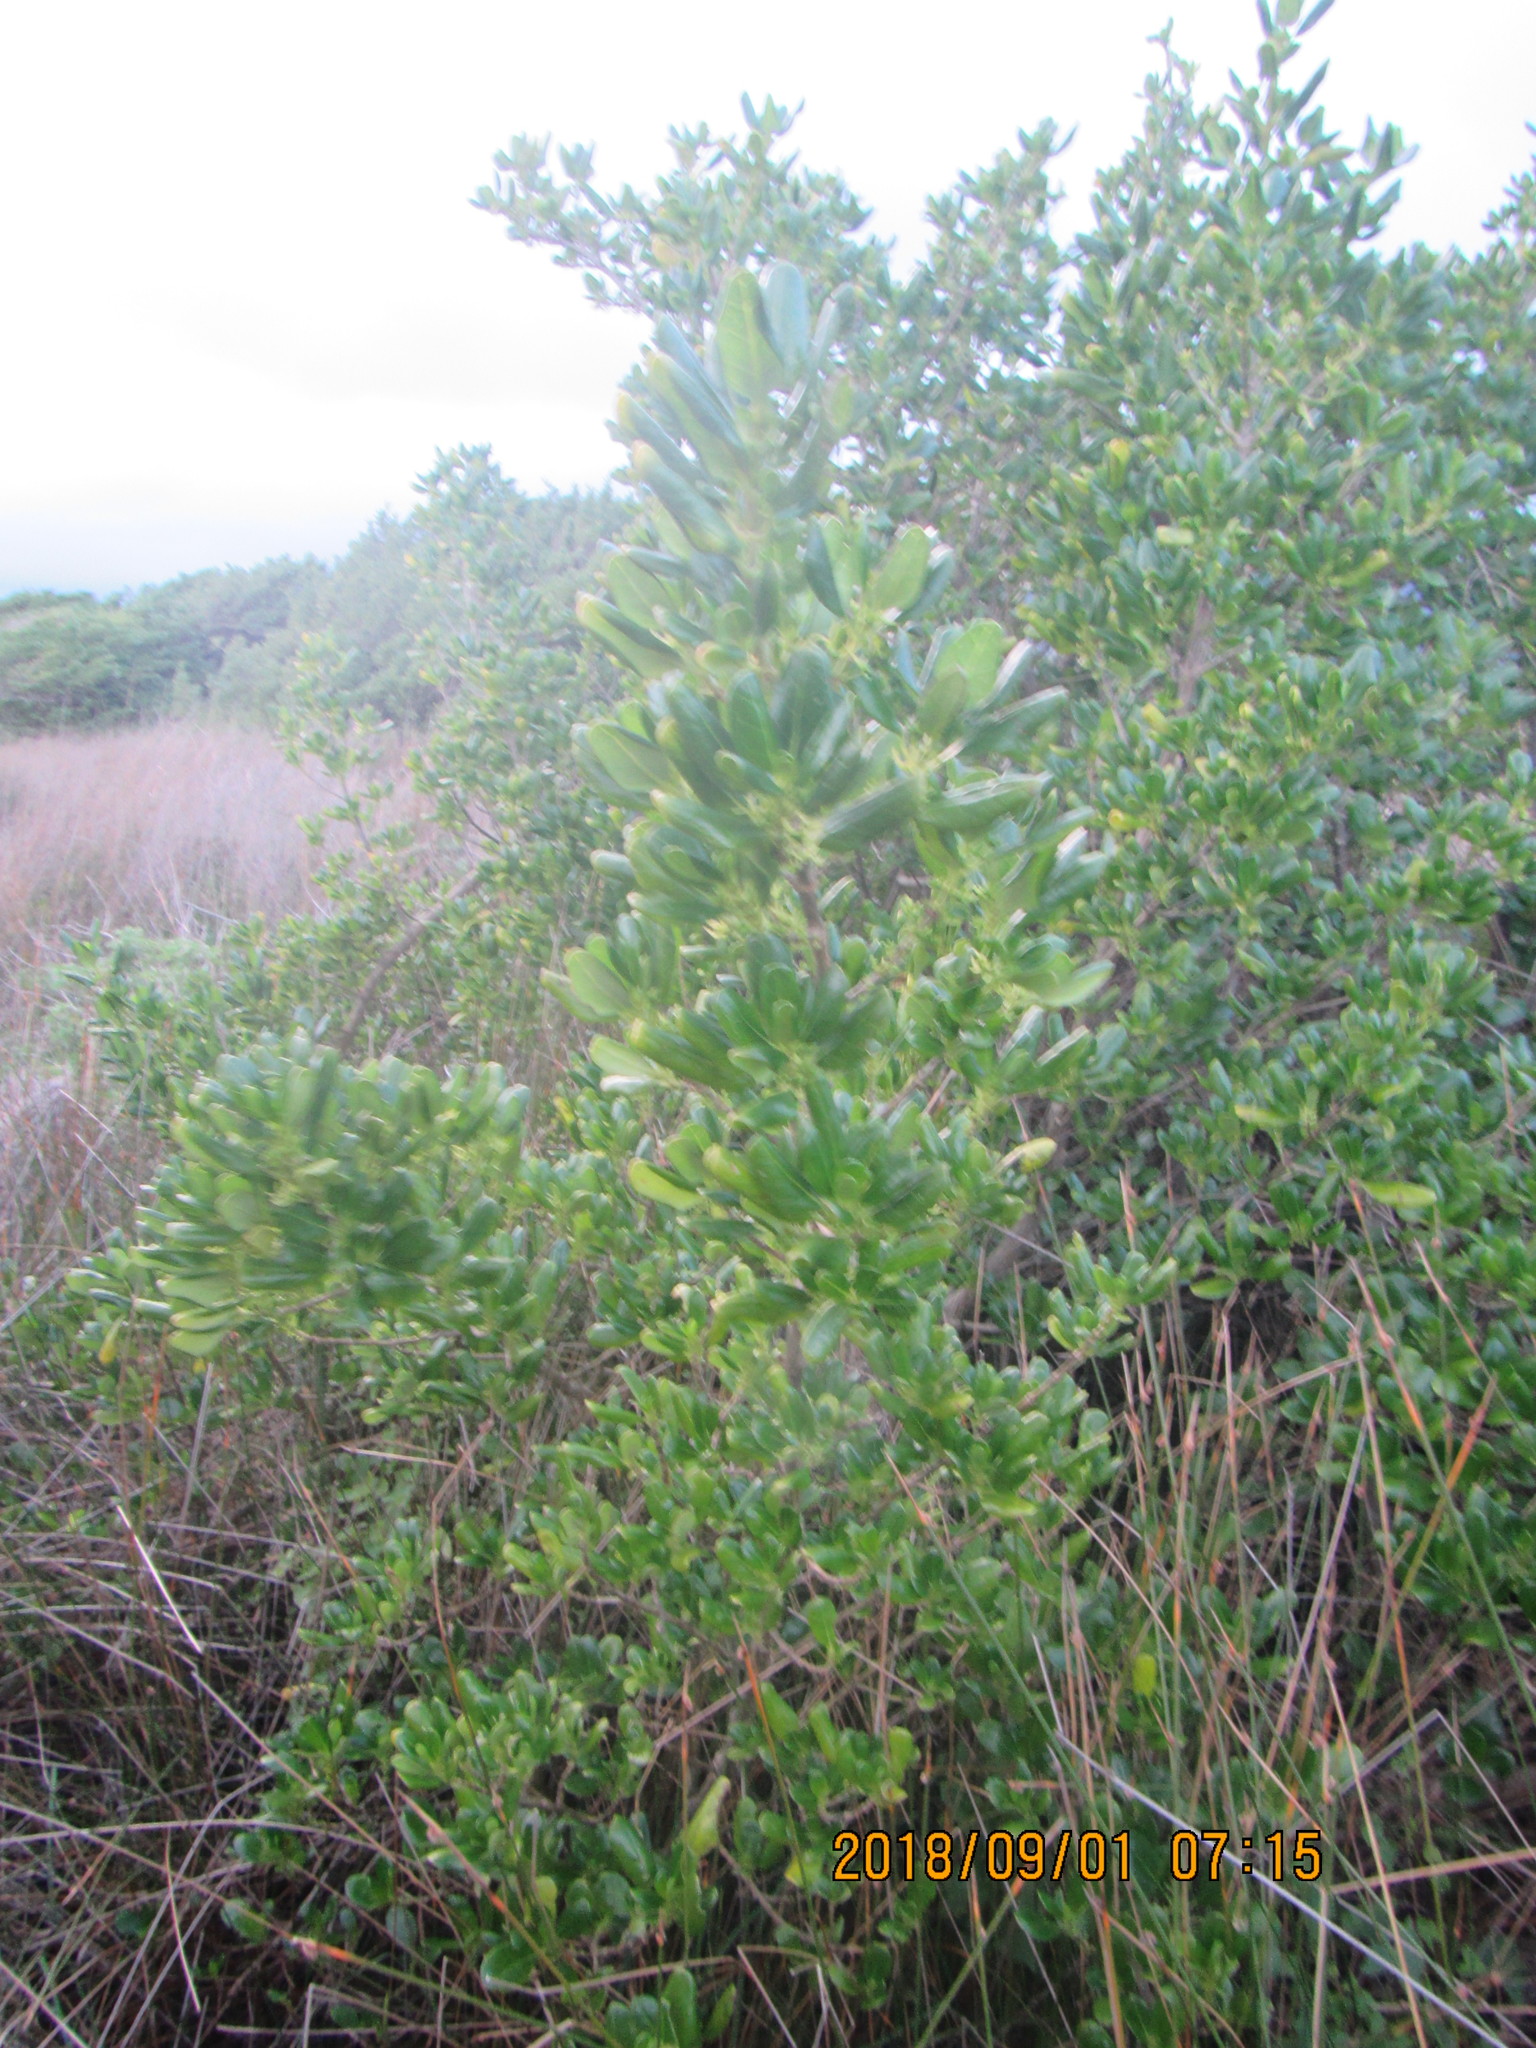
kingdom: Plantae
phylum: Tracheophyta
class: Magnoliopsida
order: Gentianales
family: Rubiaceae
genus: Coprosma
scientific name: Coprosma repens
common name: Tree bedstraw
